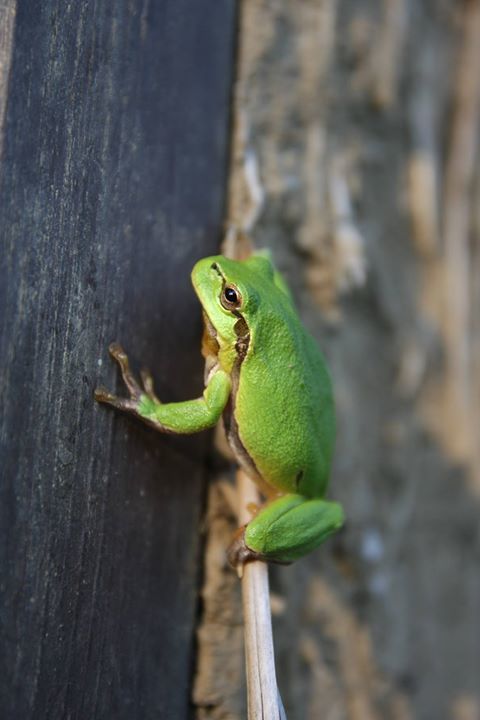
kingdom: Animalia
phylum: Chordata
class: Amphibia
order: Anura
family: Hylidae
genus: Hyla
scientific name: Hyla arborea
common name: Common tree frog
